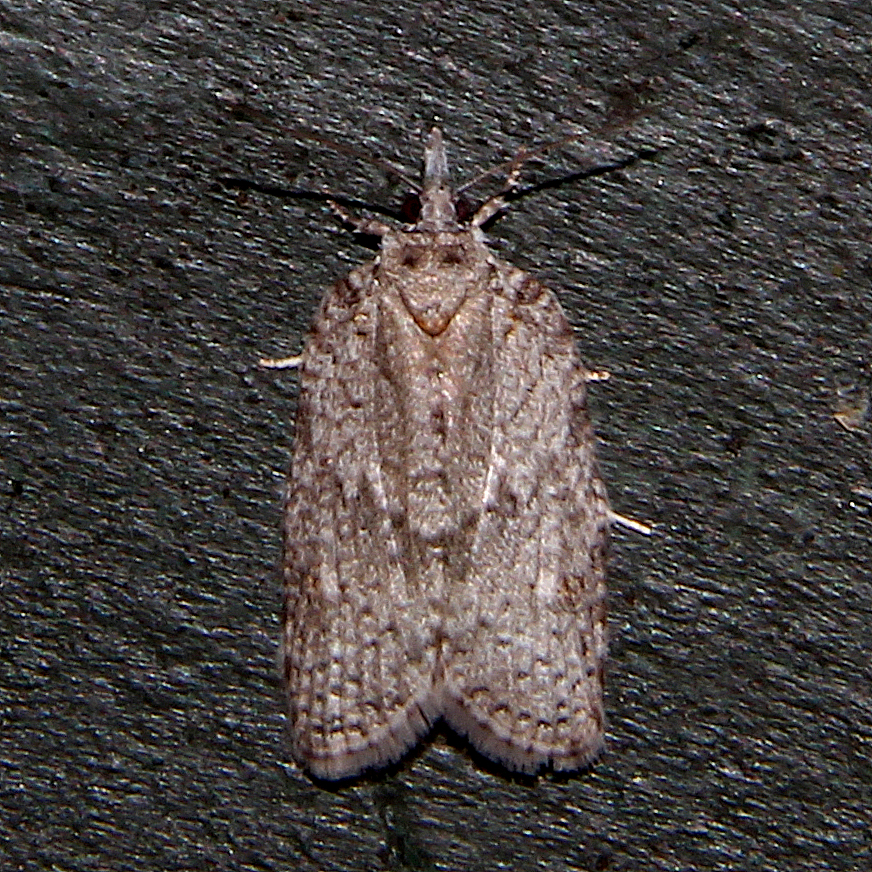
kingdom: Animalia
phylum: Arthropoda
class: Insecta
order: Lepidoptera
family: Tortricidae
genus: Isotenes
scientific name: Isotenes miserana
